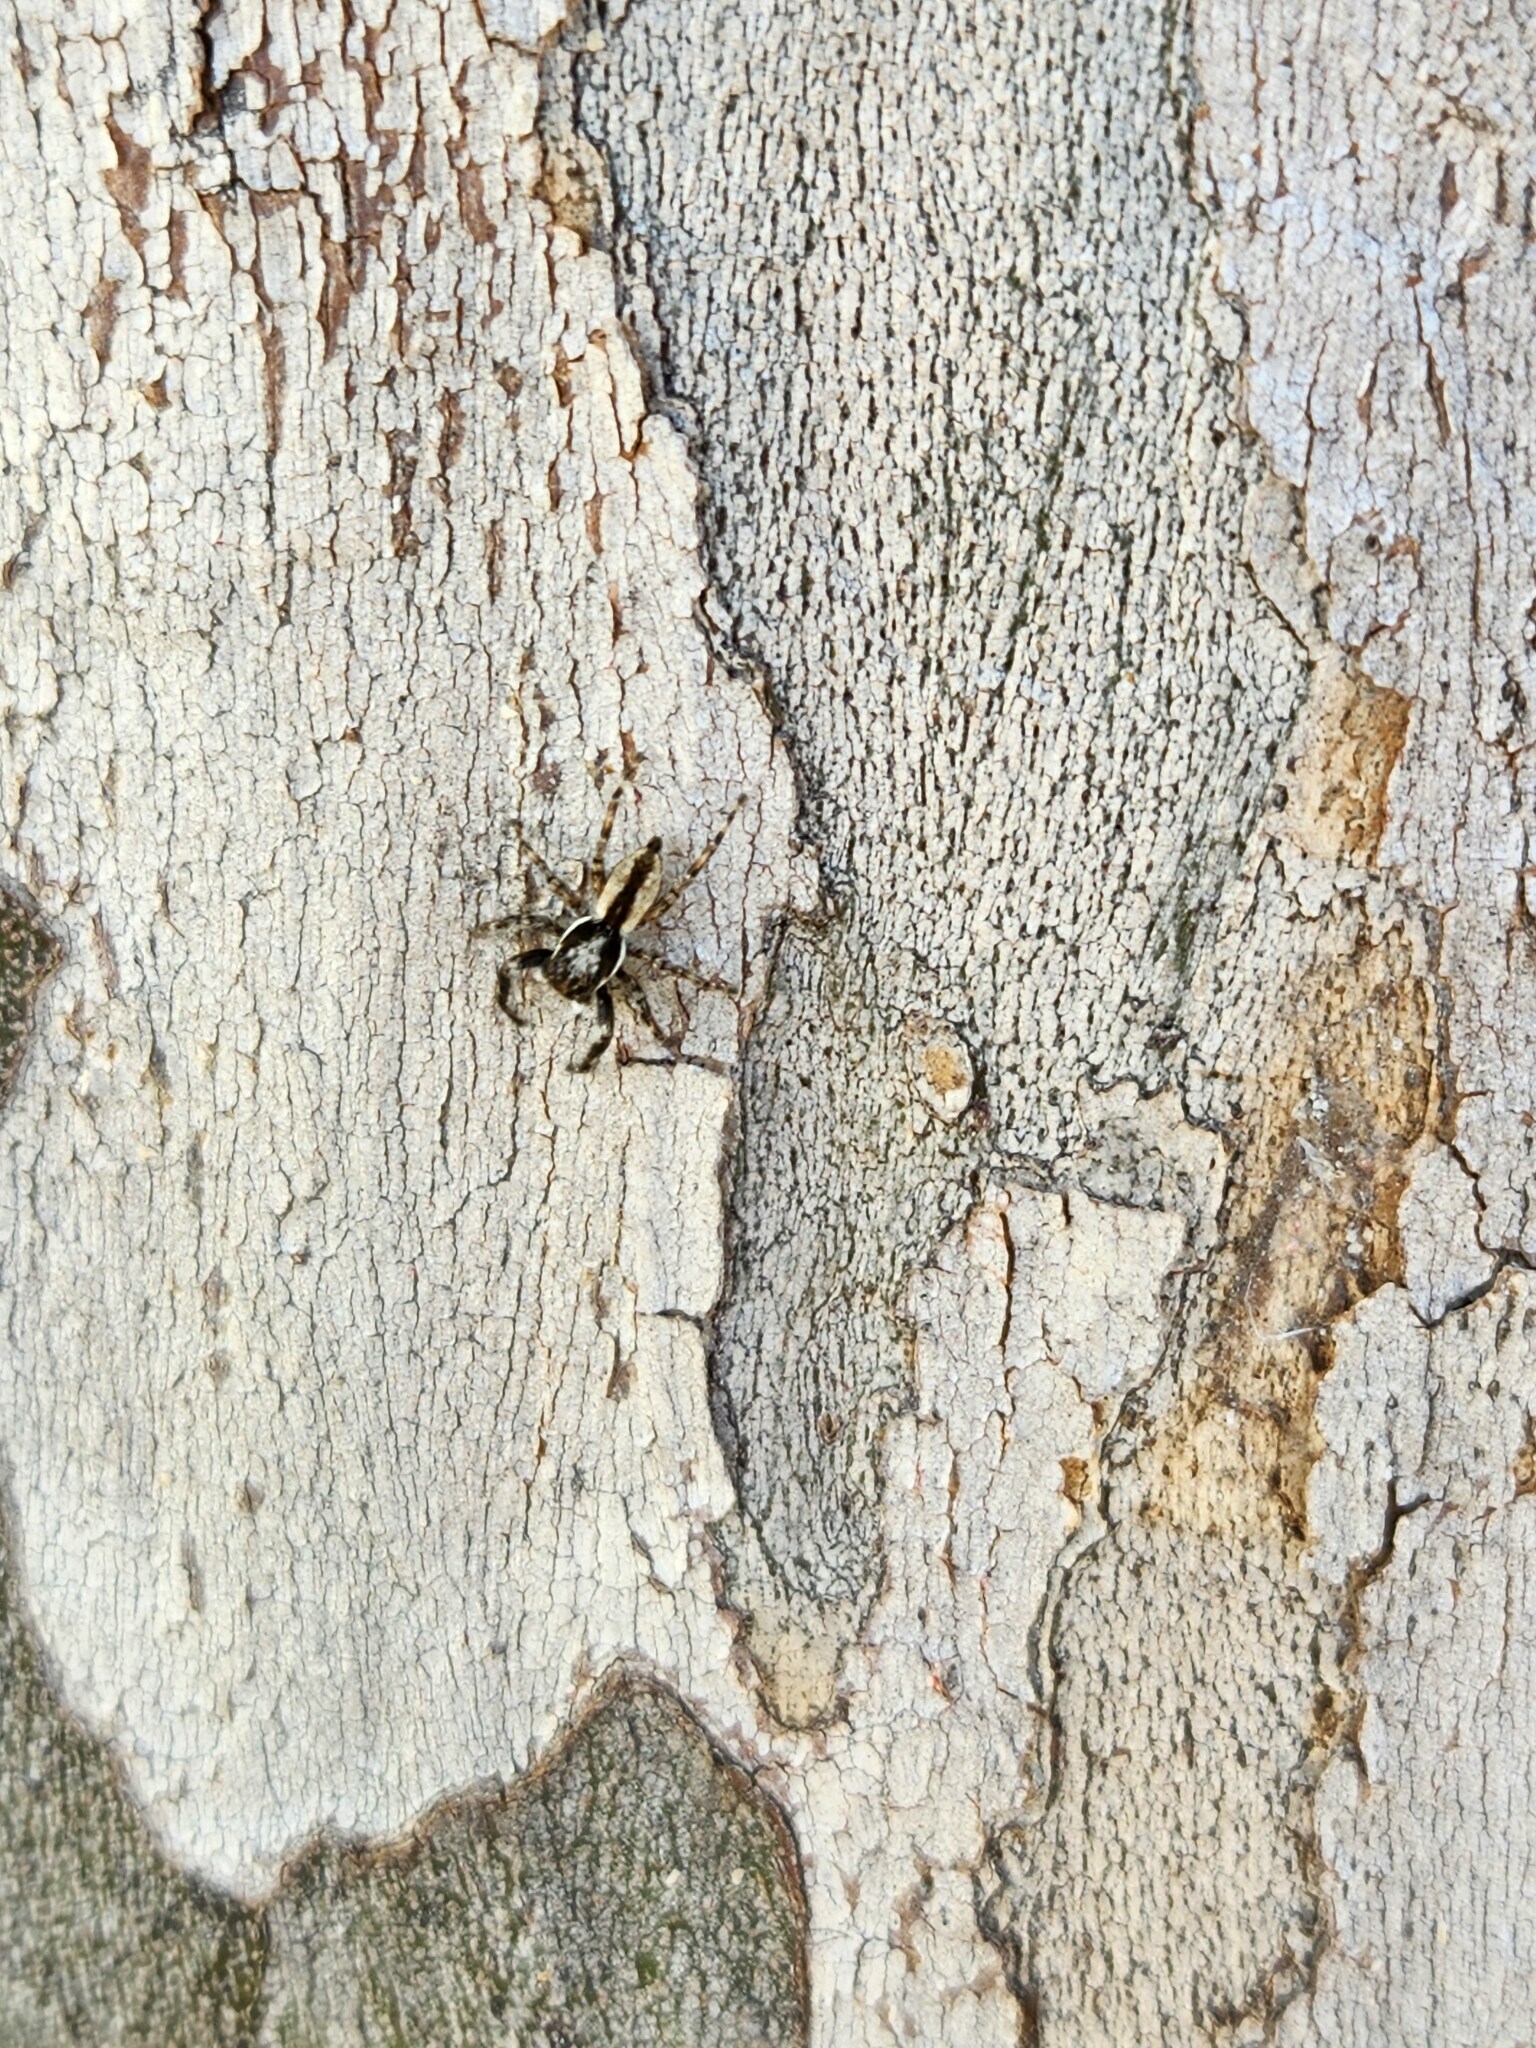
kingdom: Animalia
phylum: Arthropoda
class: Arachnida
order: Araneae
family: Salticidae
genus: Menemerus
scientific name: Menemerus bivittatus
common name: Gray wall jumper
